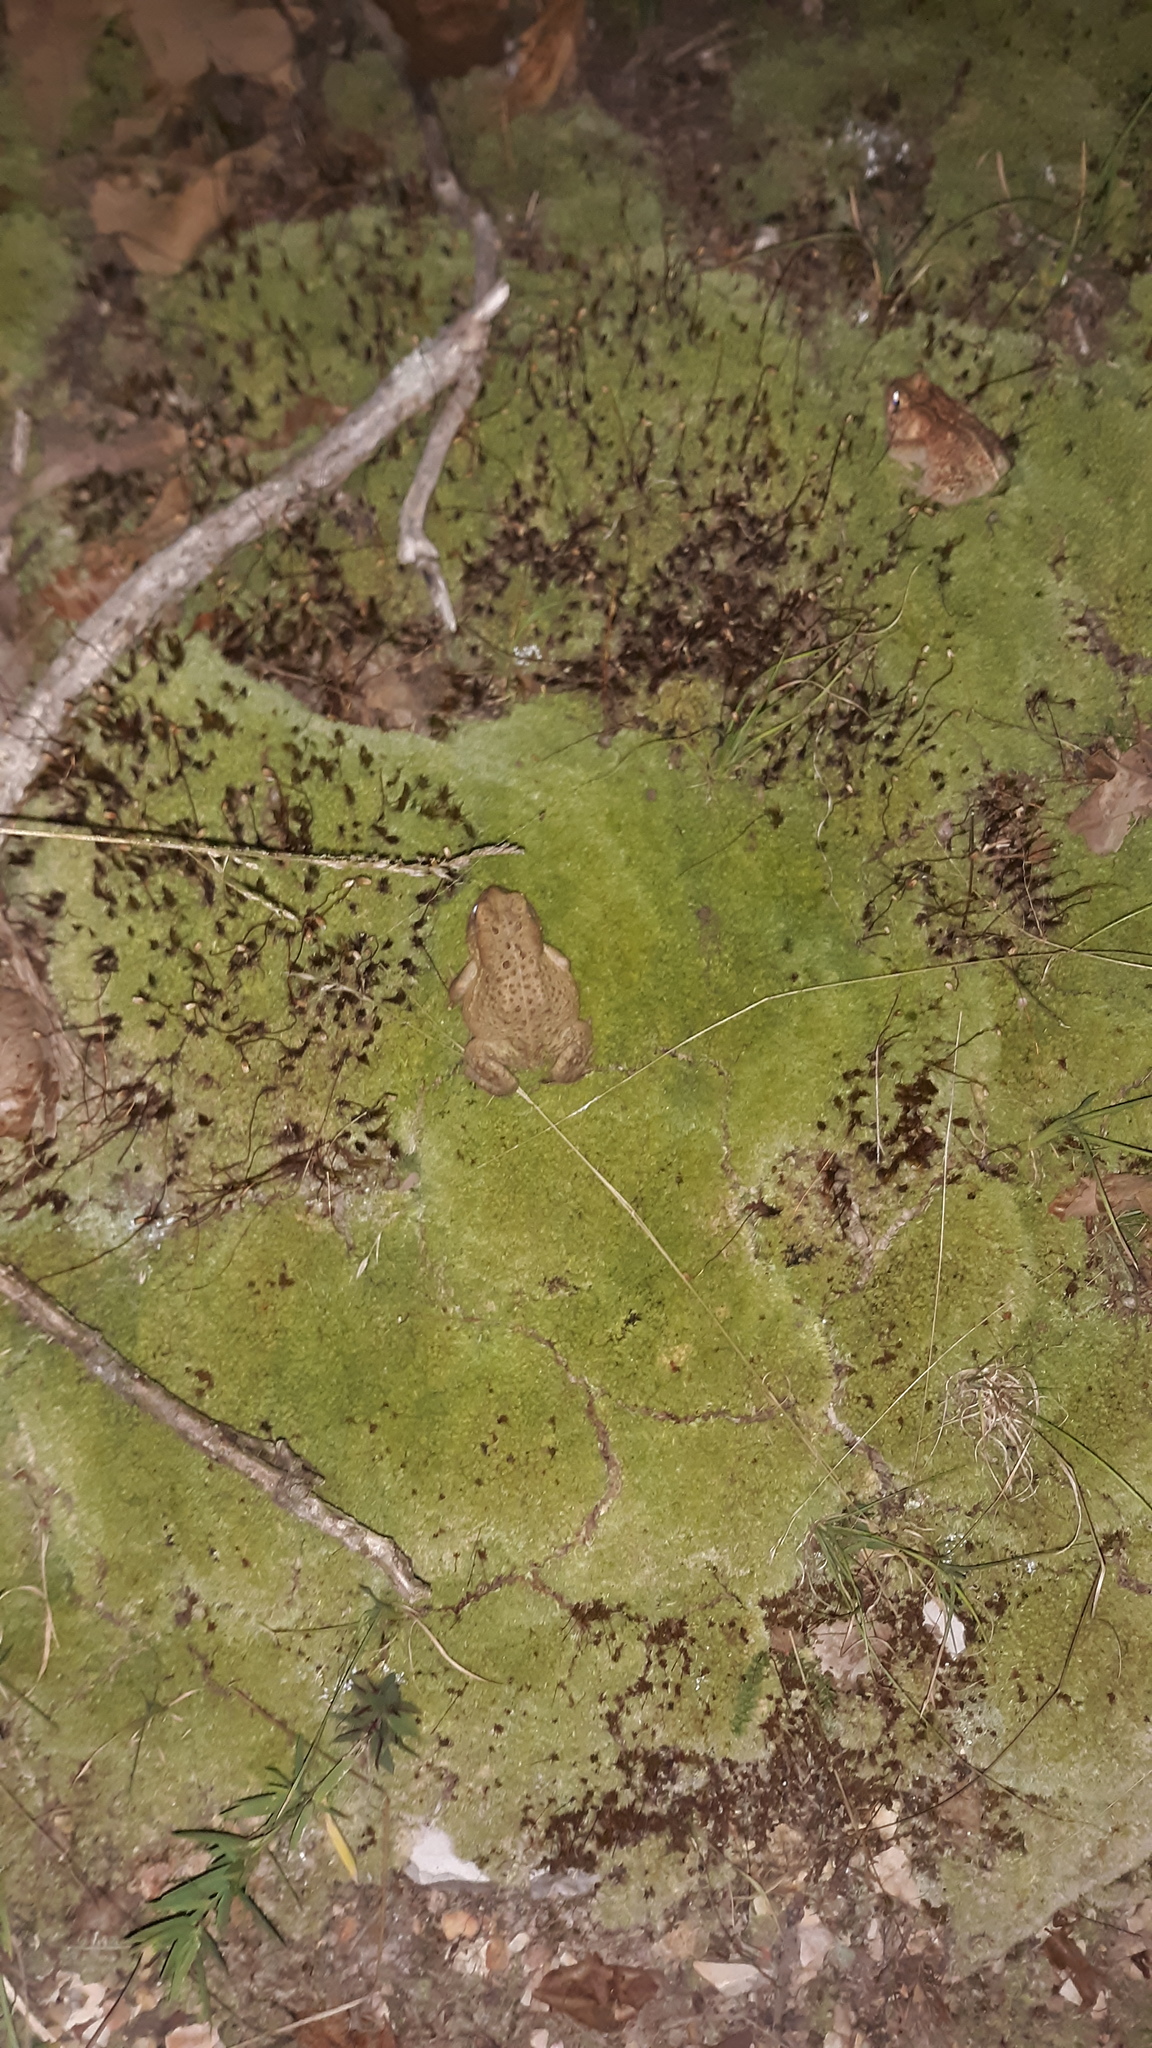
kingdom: Animalia
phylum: Chordata
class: Amphibia
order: Anura
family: Bufonidae
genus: Anaxyrus
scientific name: Anaxyrus americanus
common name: American toad
